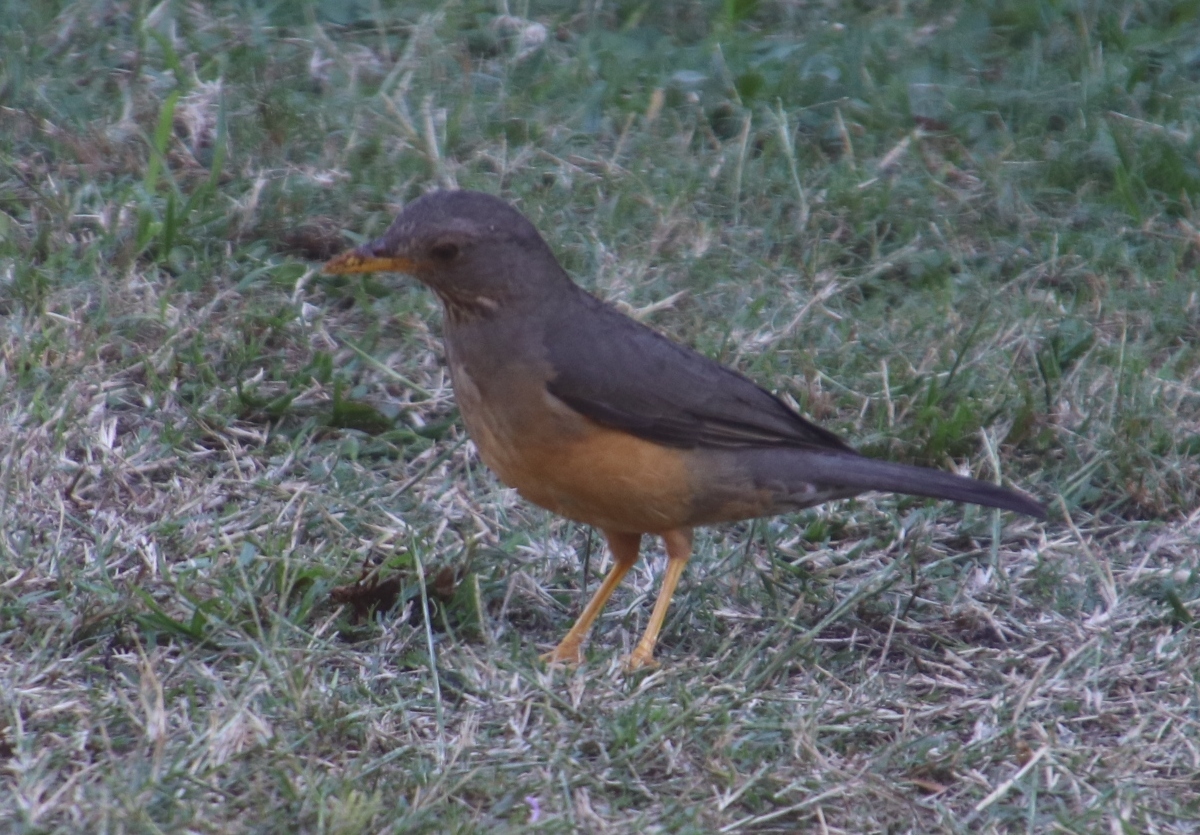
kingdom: Animalia
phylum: Chordata
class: Aves
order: Passeriformes
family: Turdidae
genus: Turdus
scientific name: Turdus olivaceus
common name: Olive thrush
